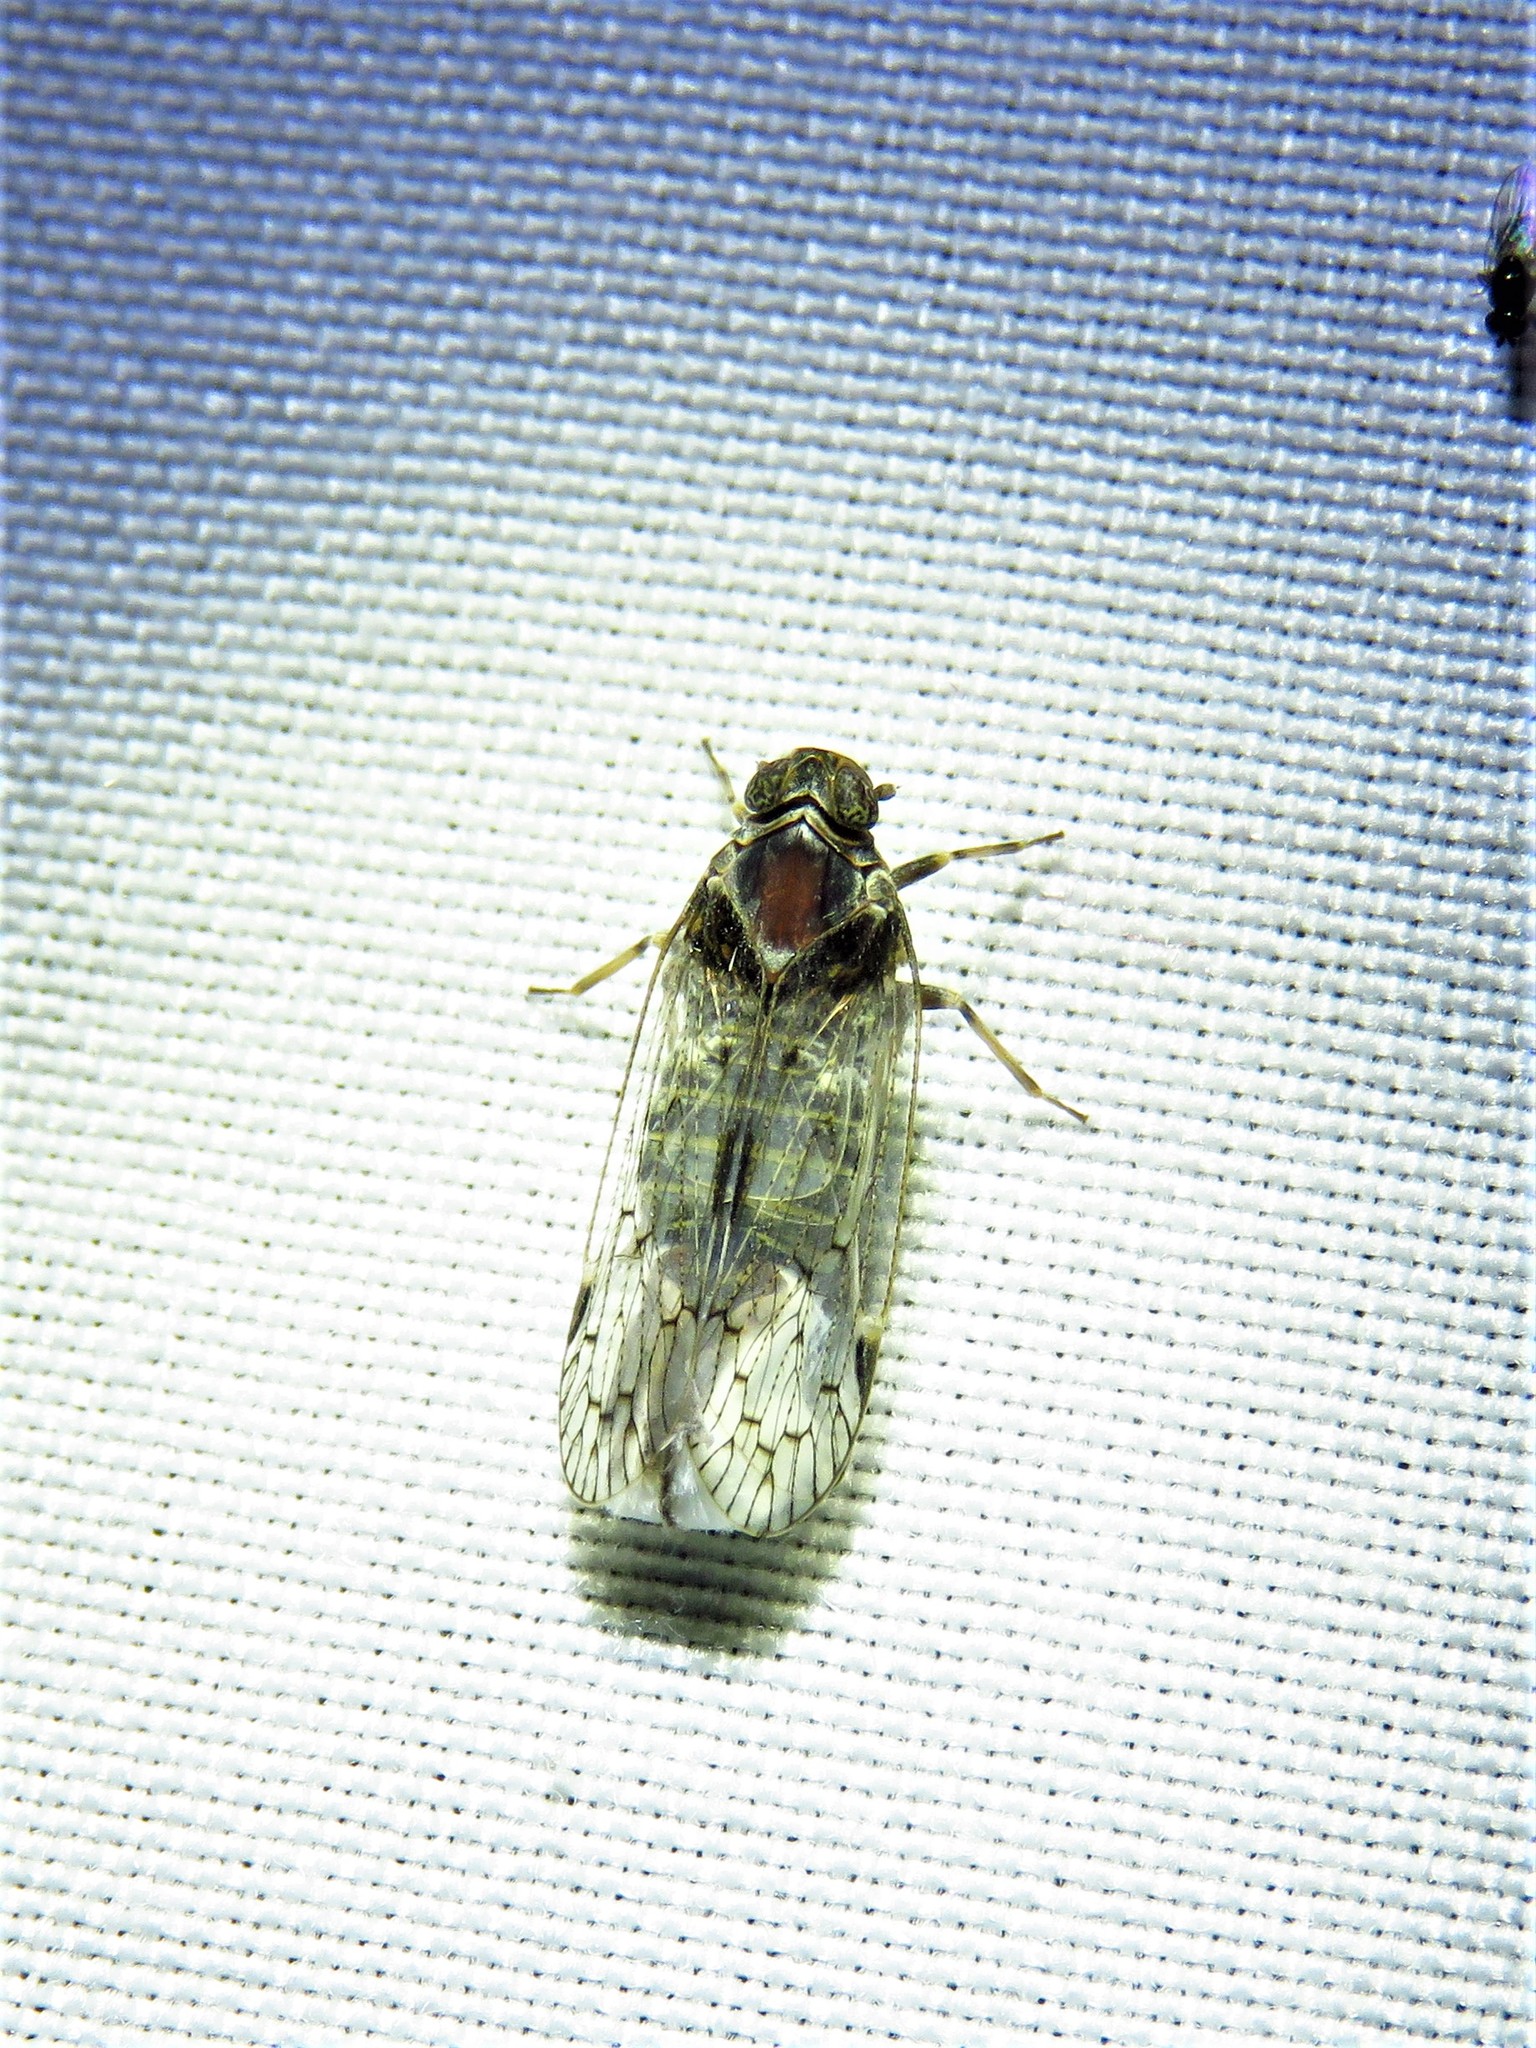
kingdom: Animalia
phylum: Arthropoda
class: Insecta
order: Hemiptera
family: Cixiidae
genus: Melanoliarus
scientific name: Melanoliarus aridus
